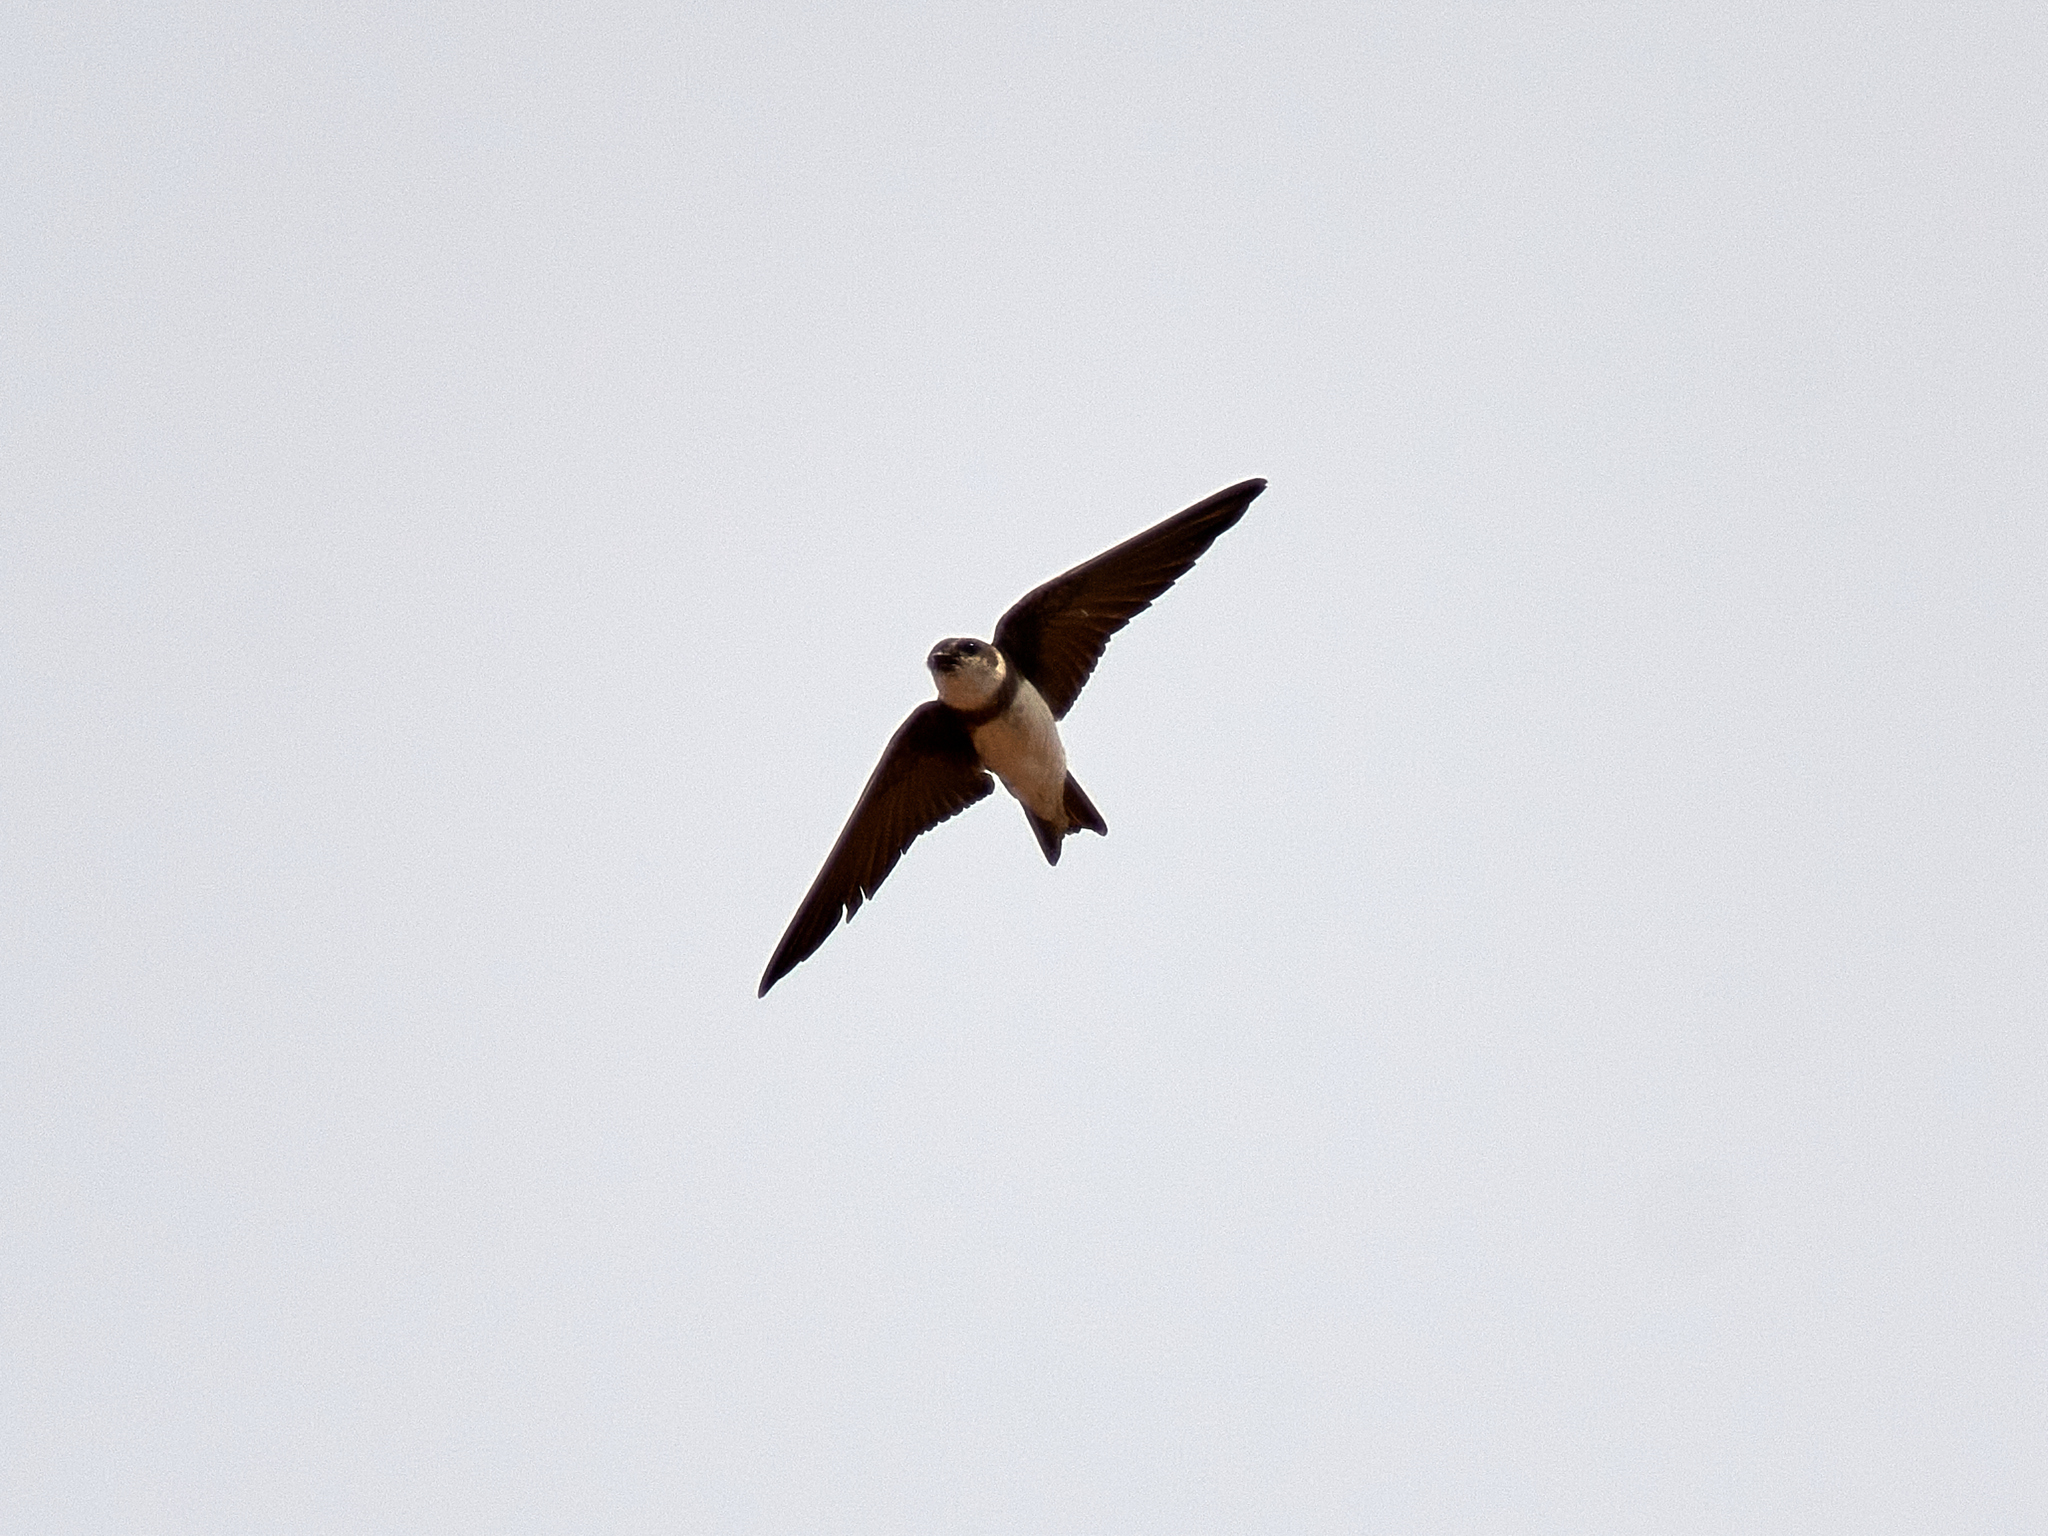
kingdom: Animalia
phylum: Chordata
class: Aves
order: Passeriformes
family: Hirundinidae
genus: Riparia
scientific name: Riparia riparia
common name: Sand martin
